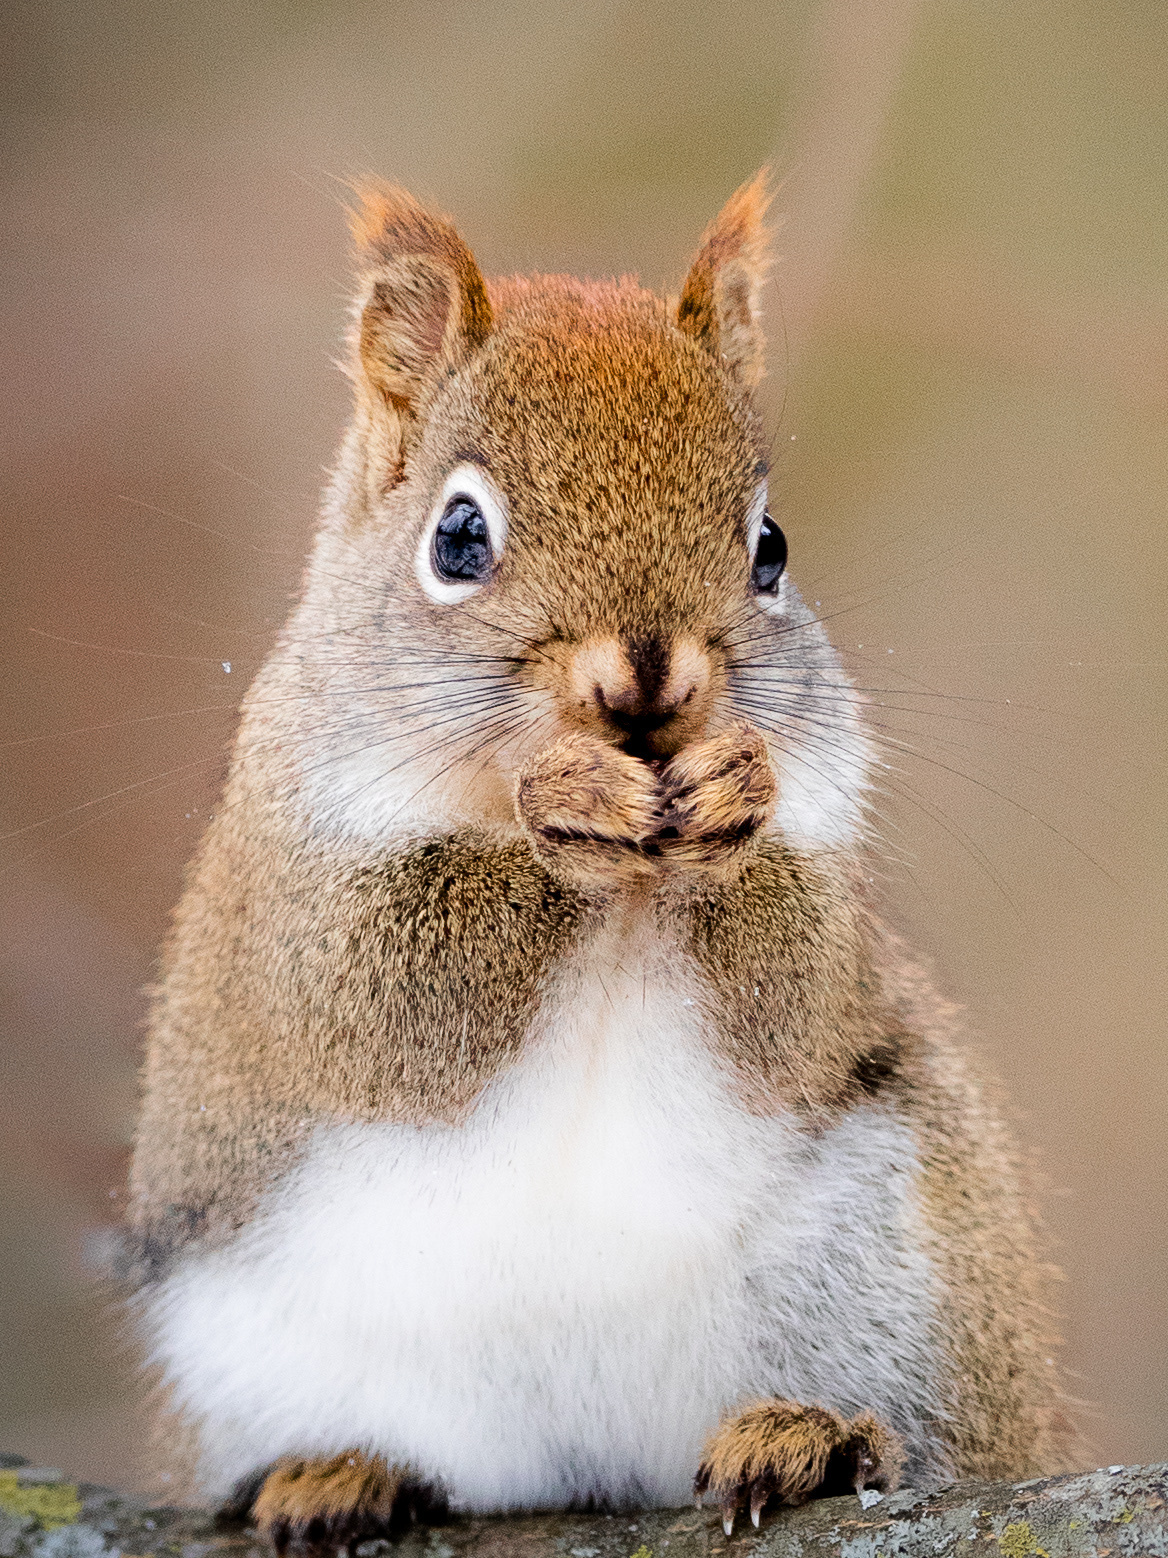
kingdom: Animalia
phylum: Chordata
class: Mammalia
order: Rodentia
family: Sciuridae
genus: Tamiasciurus
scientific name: Tamiasciurus hudsonicus
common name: Red squirrel
